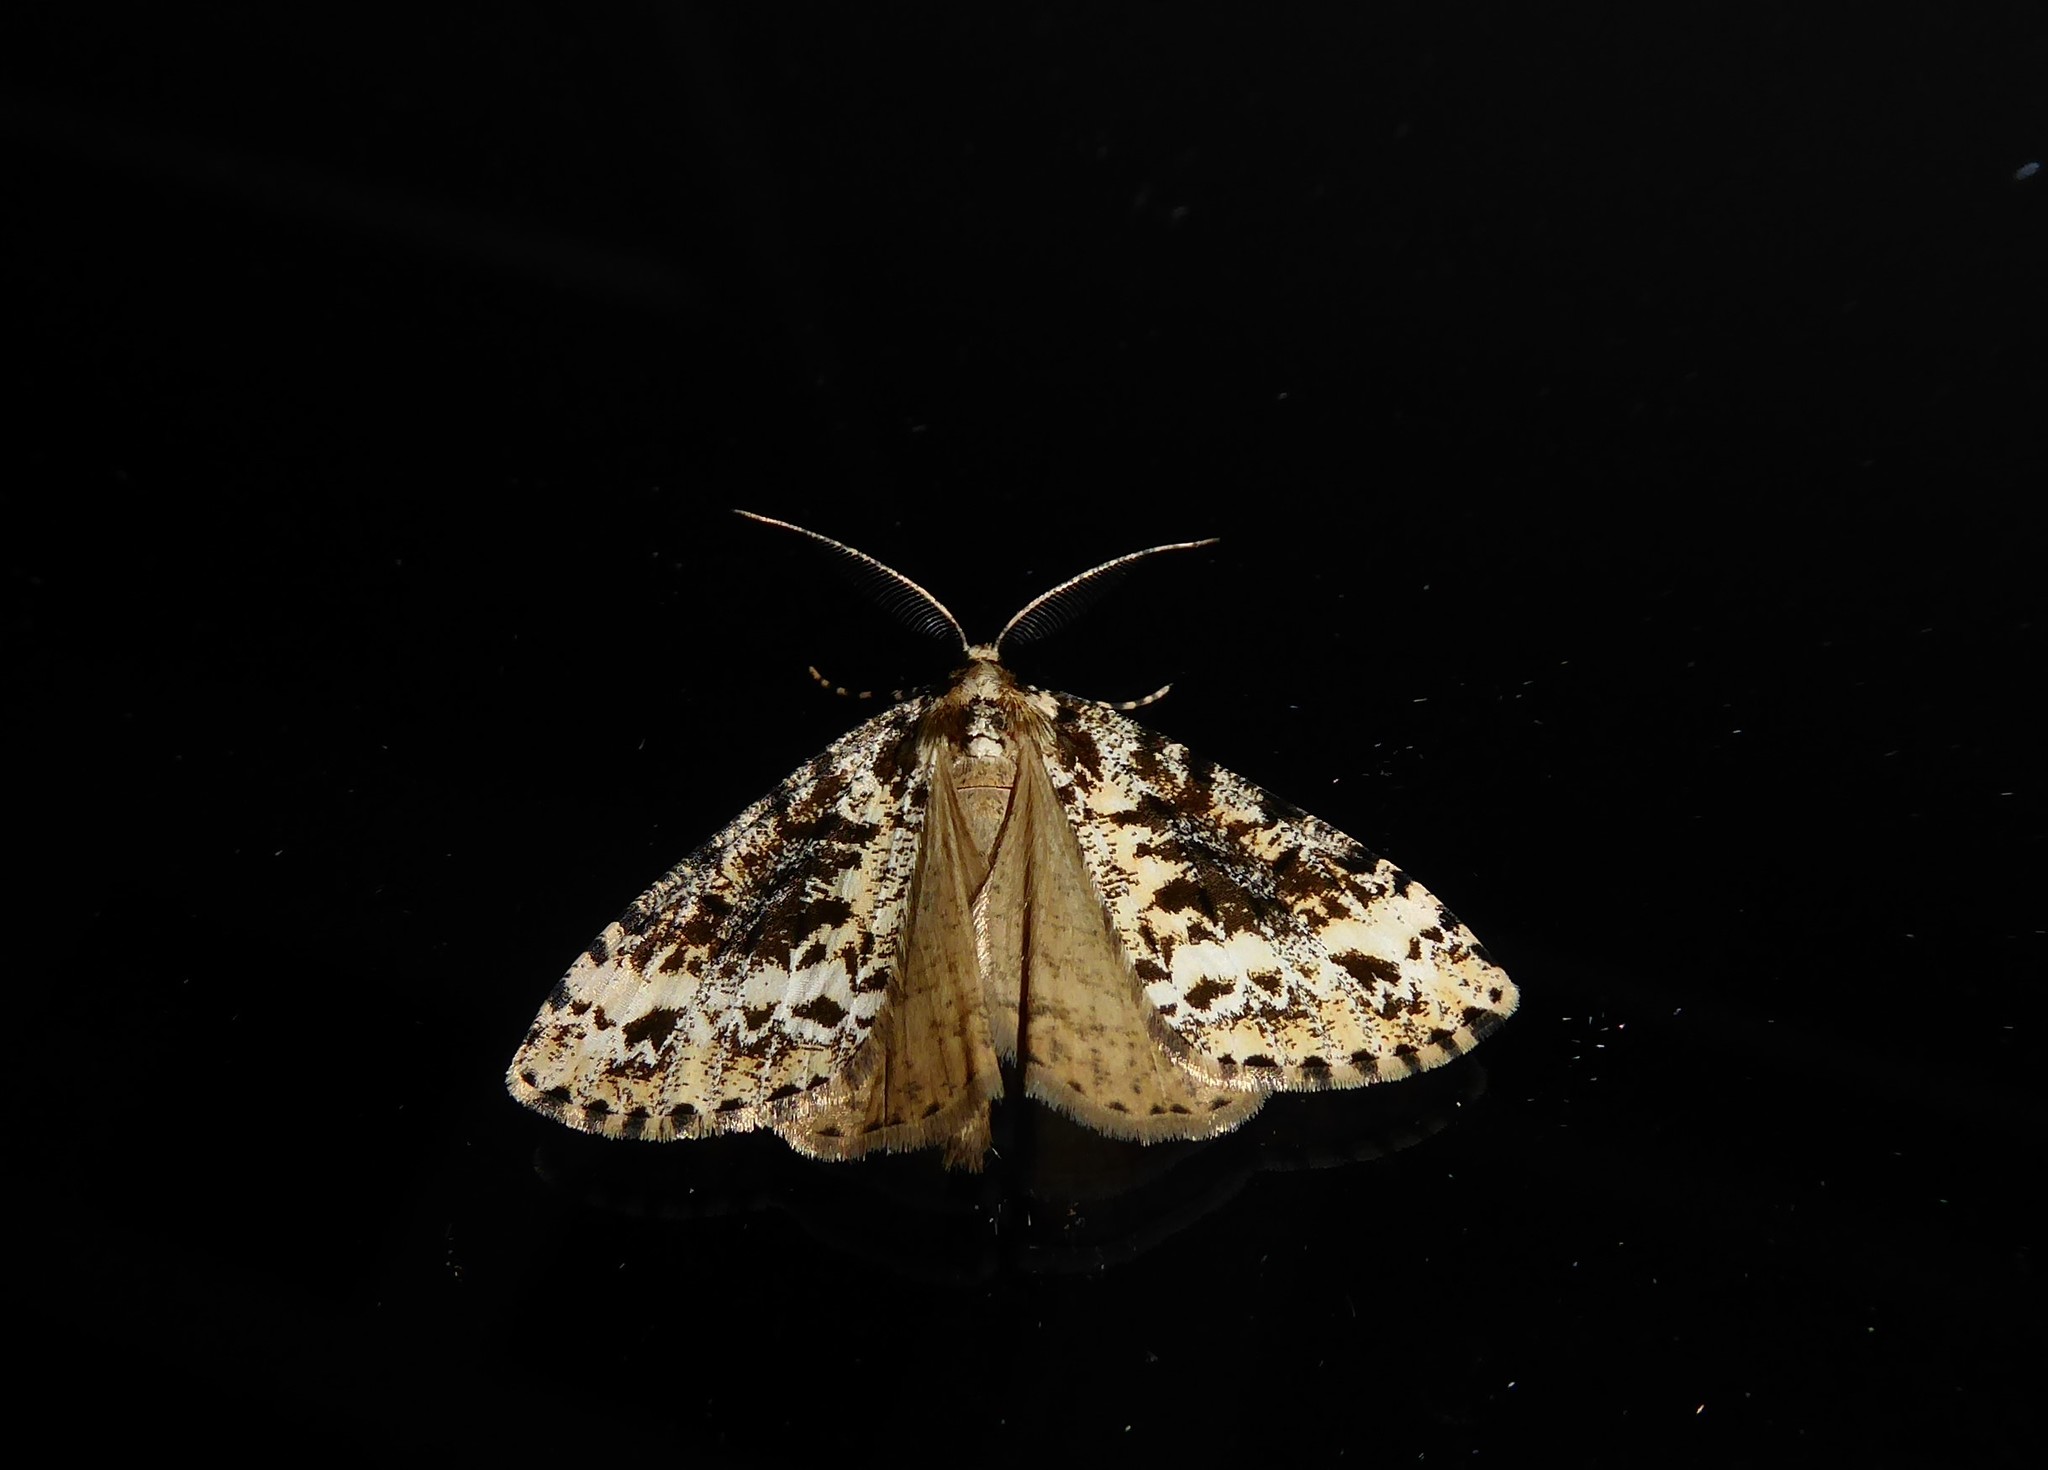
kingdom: Animalia
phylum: Arthropoda
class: Insecta
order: Lepidoptera
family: Geometridae
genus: Pseudocoremia
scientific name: Pseudocoremia leucelaea
